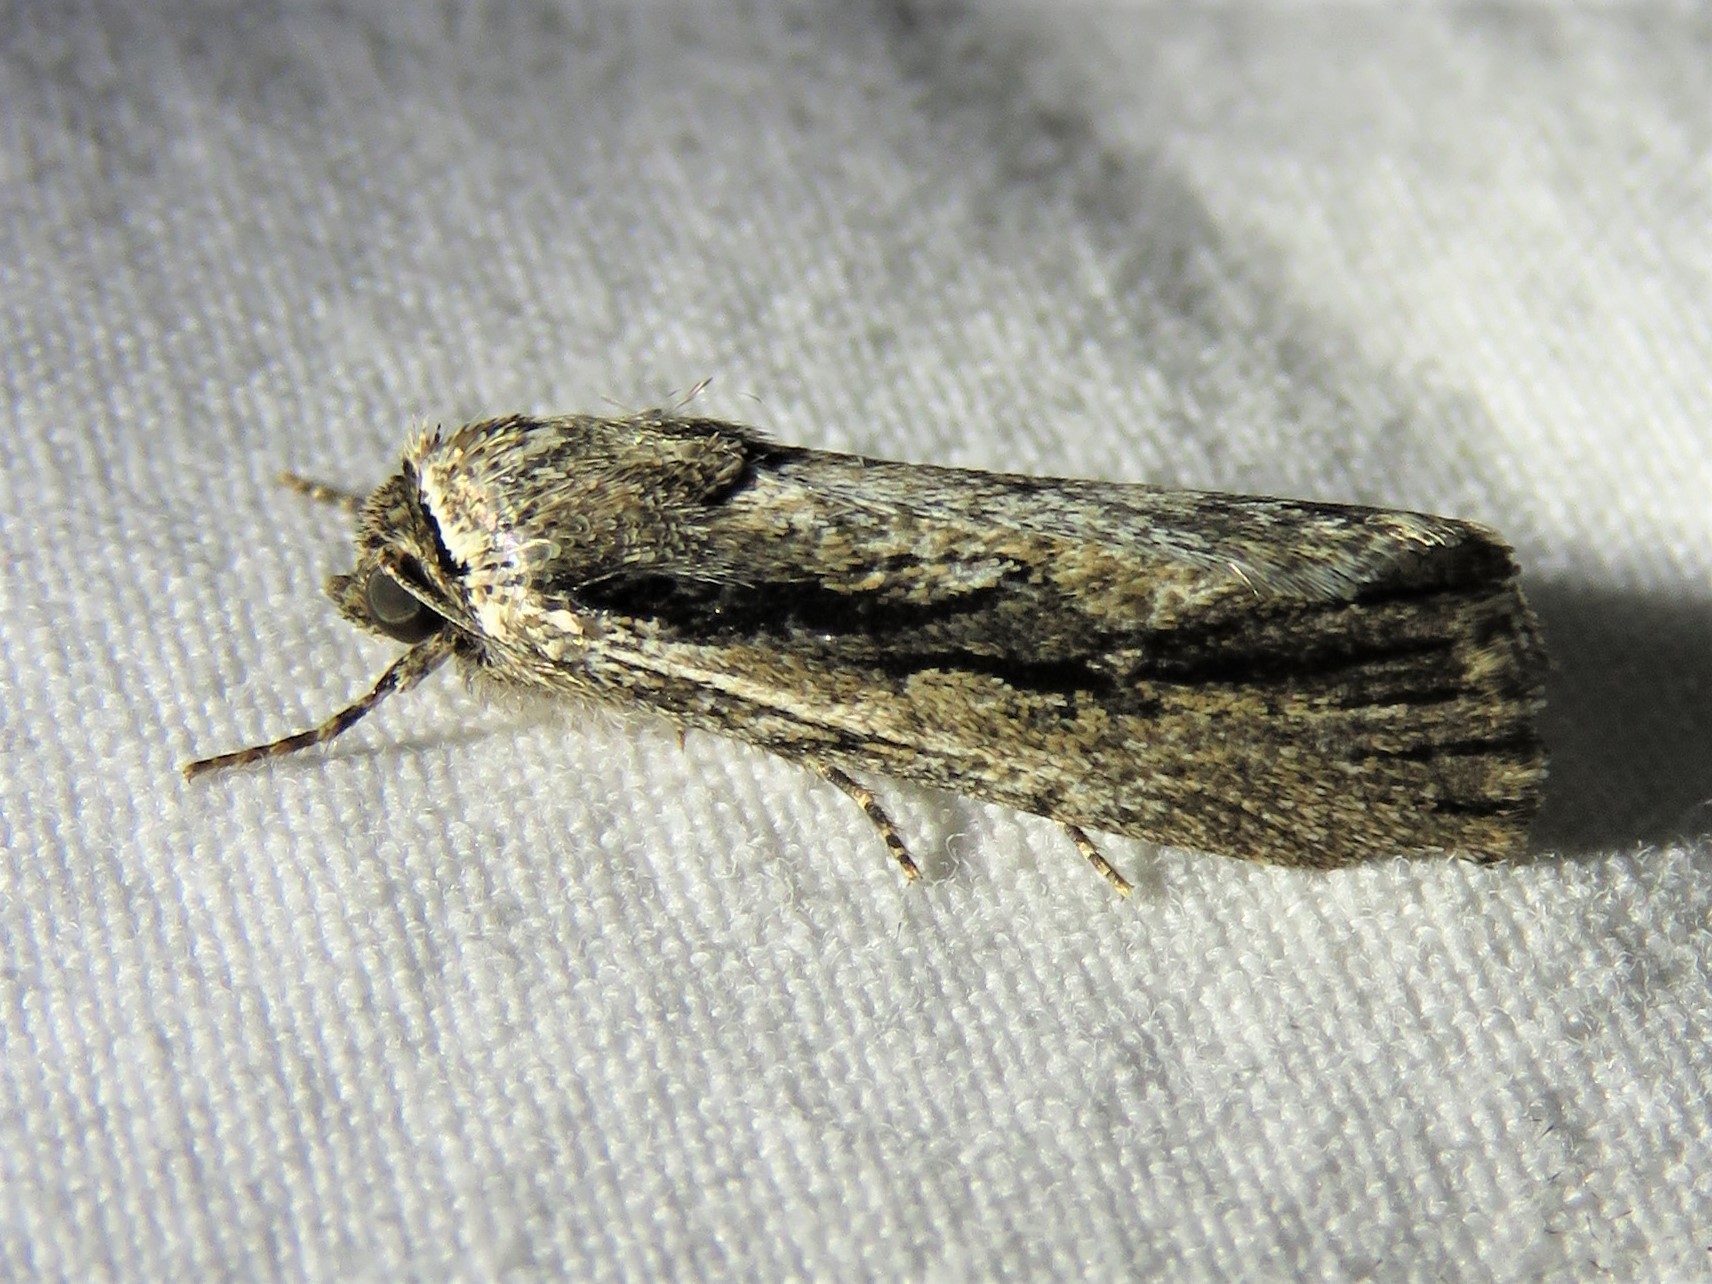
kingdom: Animalia
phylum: Arthropoda
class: Insecta
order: Lepidoptera
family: Noctuidae
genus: Sympistis
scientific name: Sympistis atricollaris
